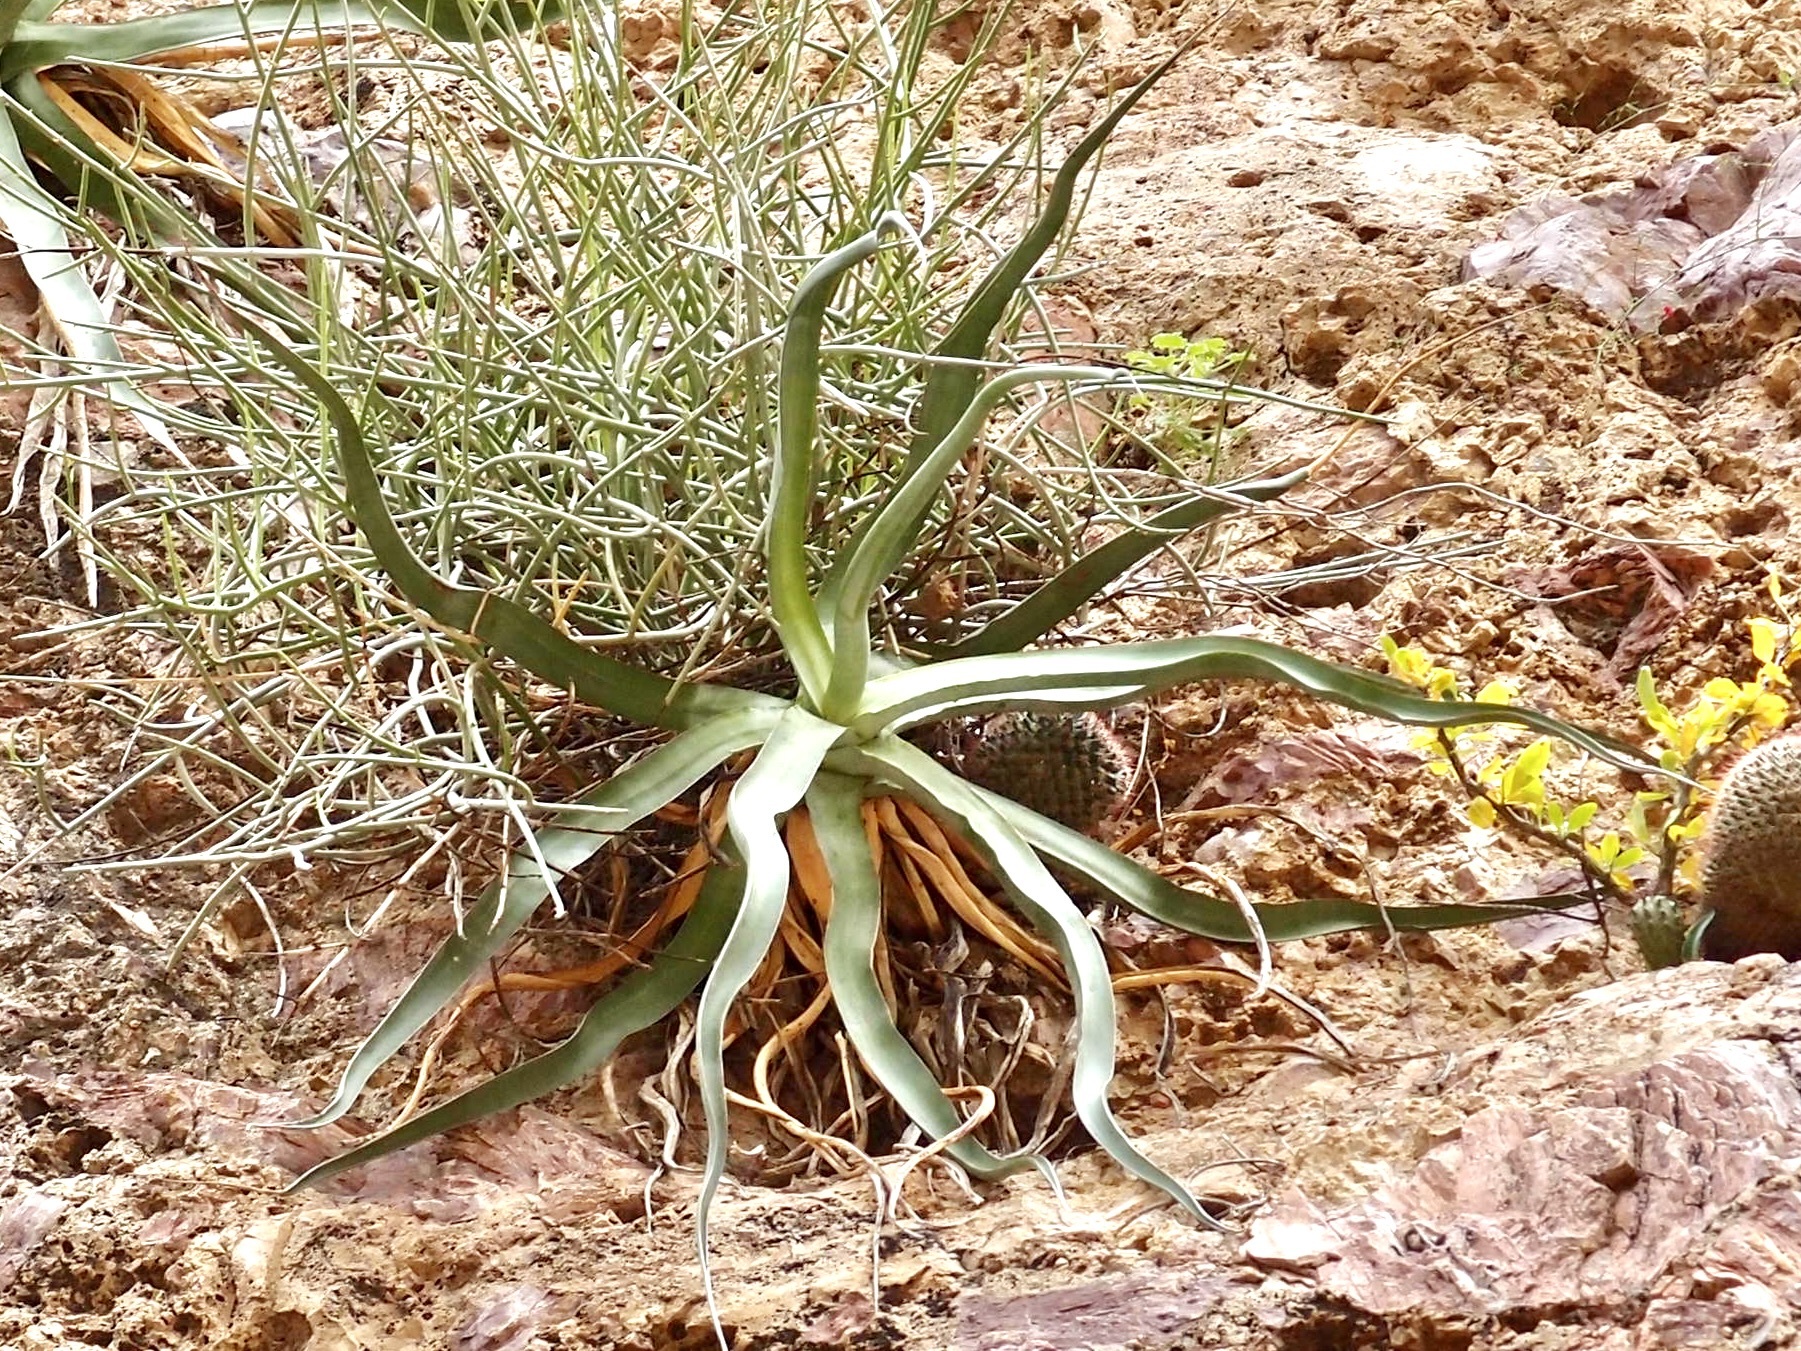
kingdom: Plantae
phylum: Tracheophyta
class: Liliopsida
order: Asparagales
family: Asparagaceae
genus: Agave
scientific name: Agave chrysoglossa
